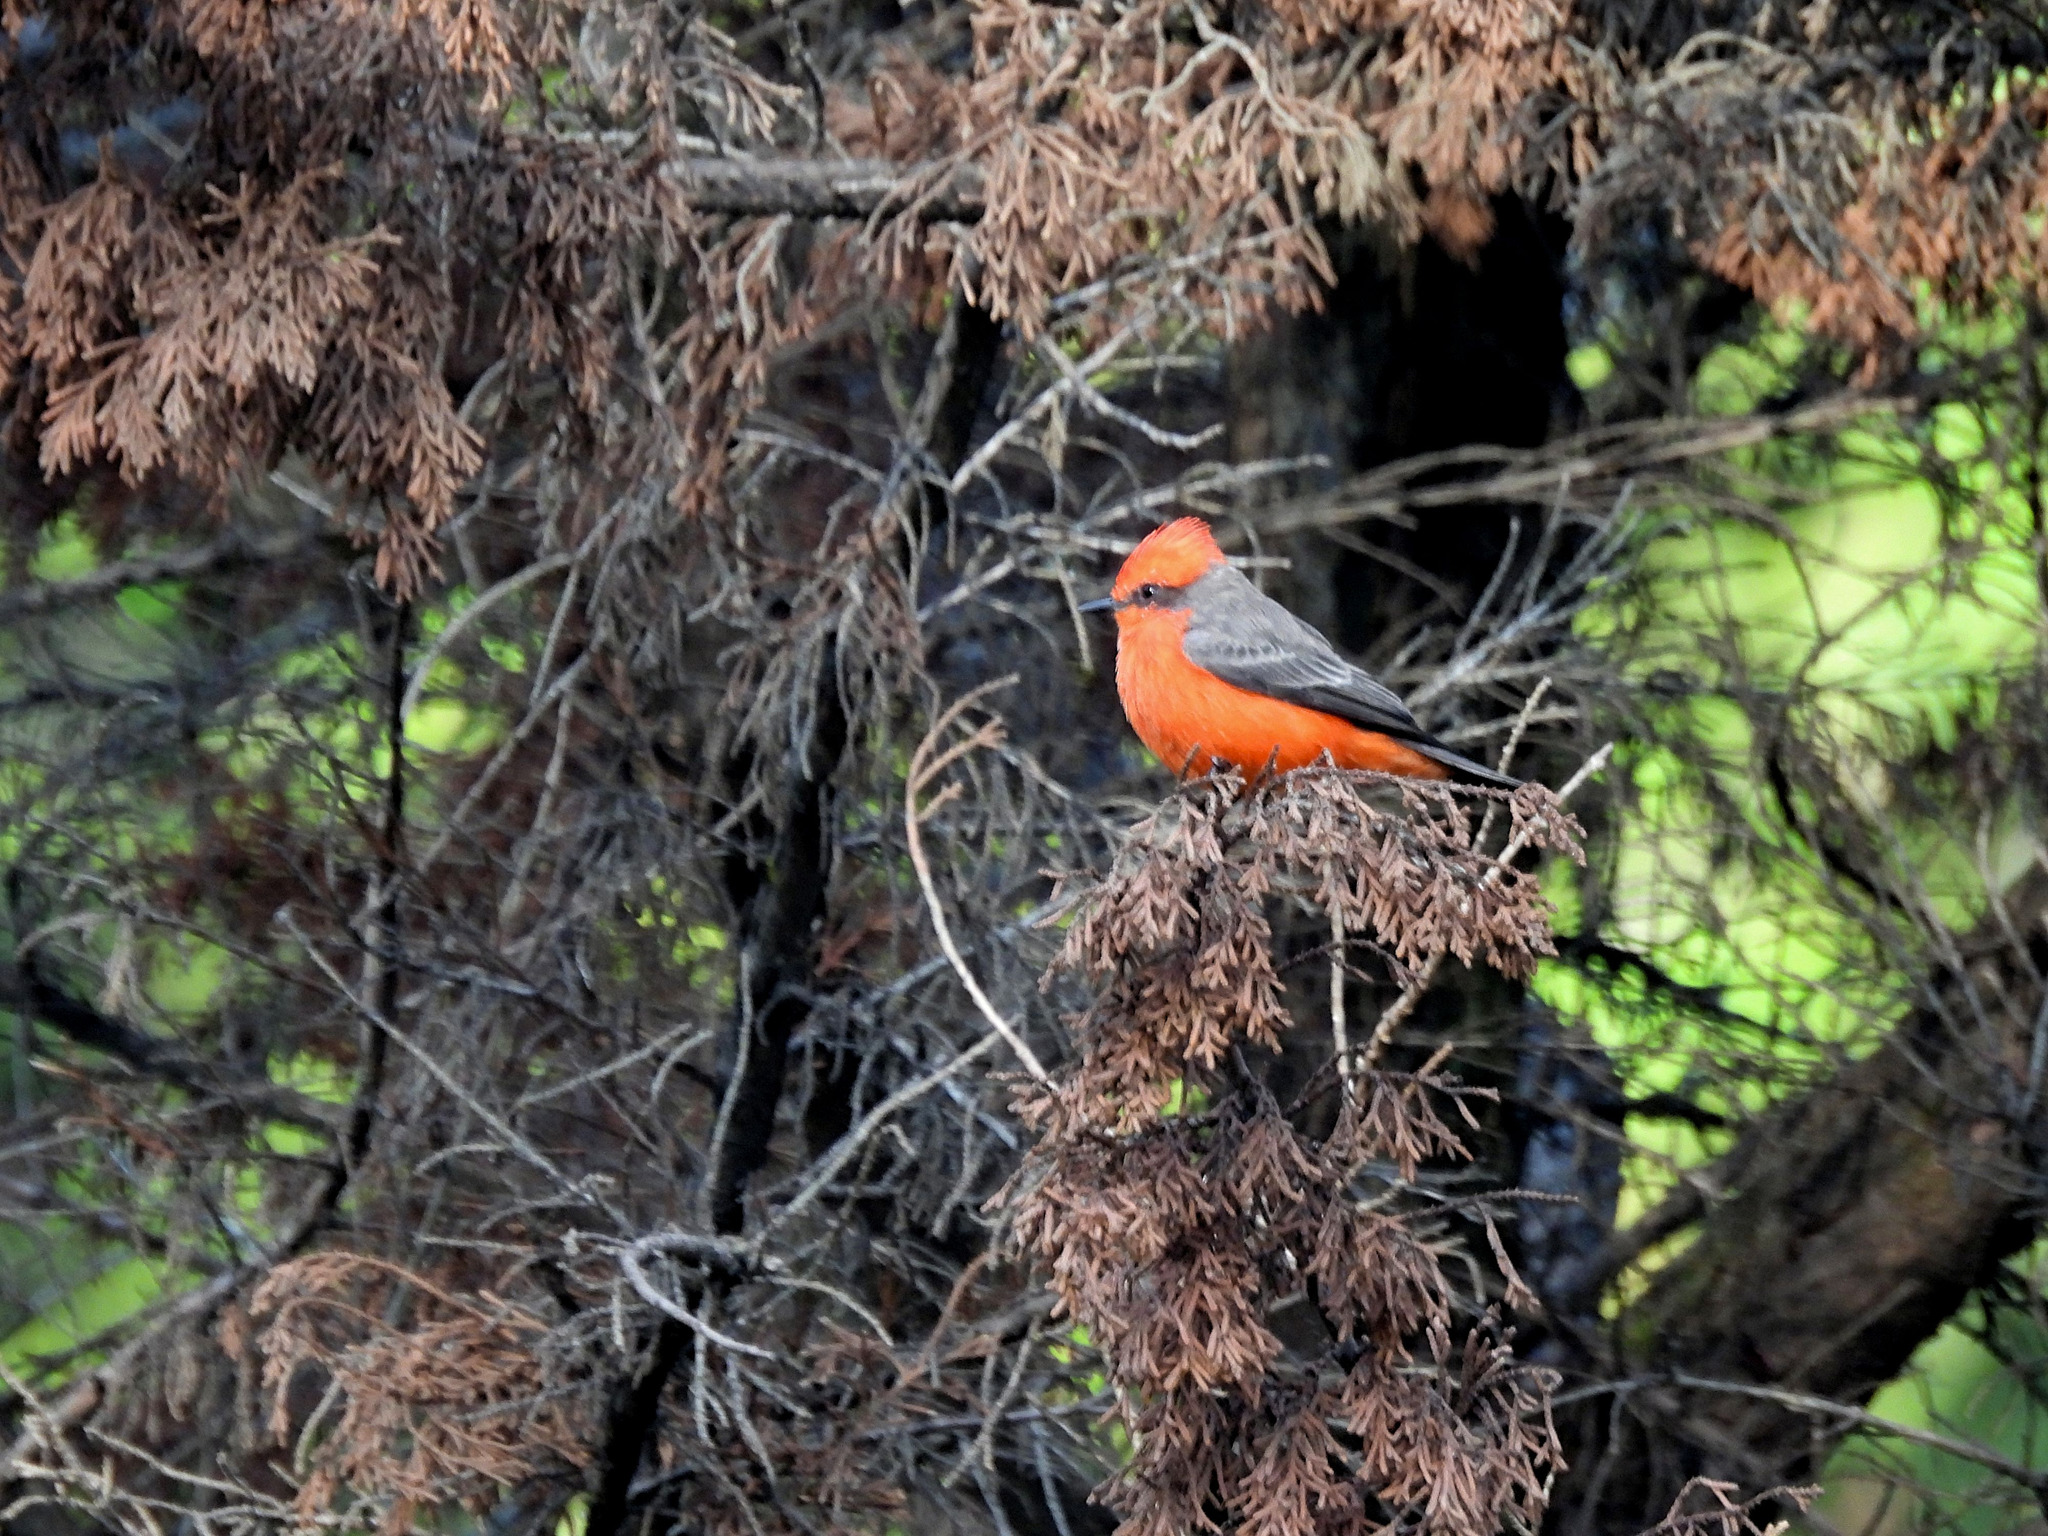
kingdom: Animalia
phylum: Chordata
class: Aves
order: Passeriformes
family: Tyrannidae
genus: Pyrocephalus
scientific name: Pyrocephalus rubinus
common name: Vermilion flycatcher
